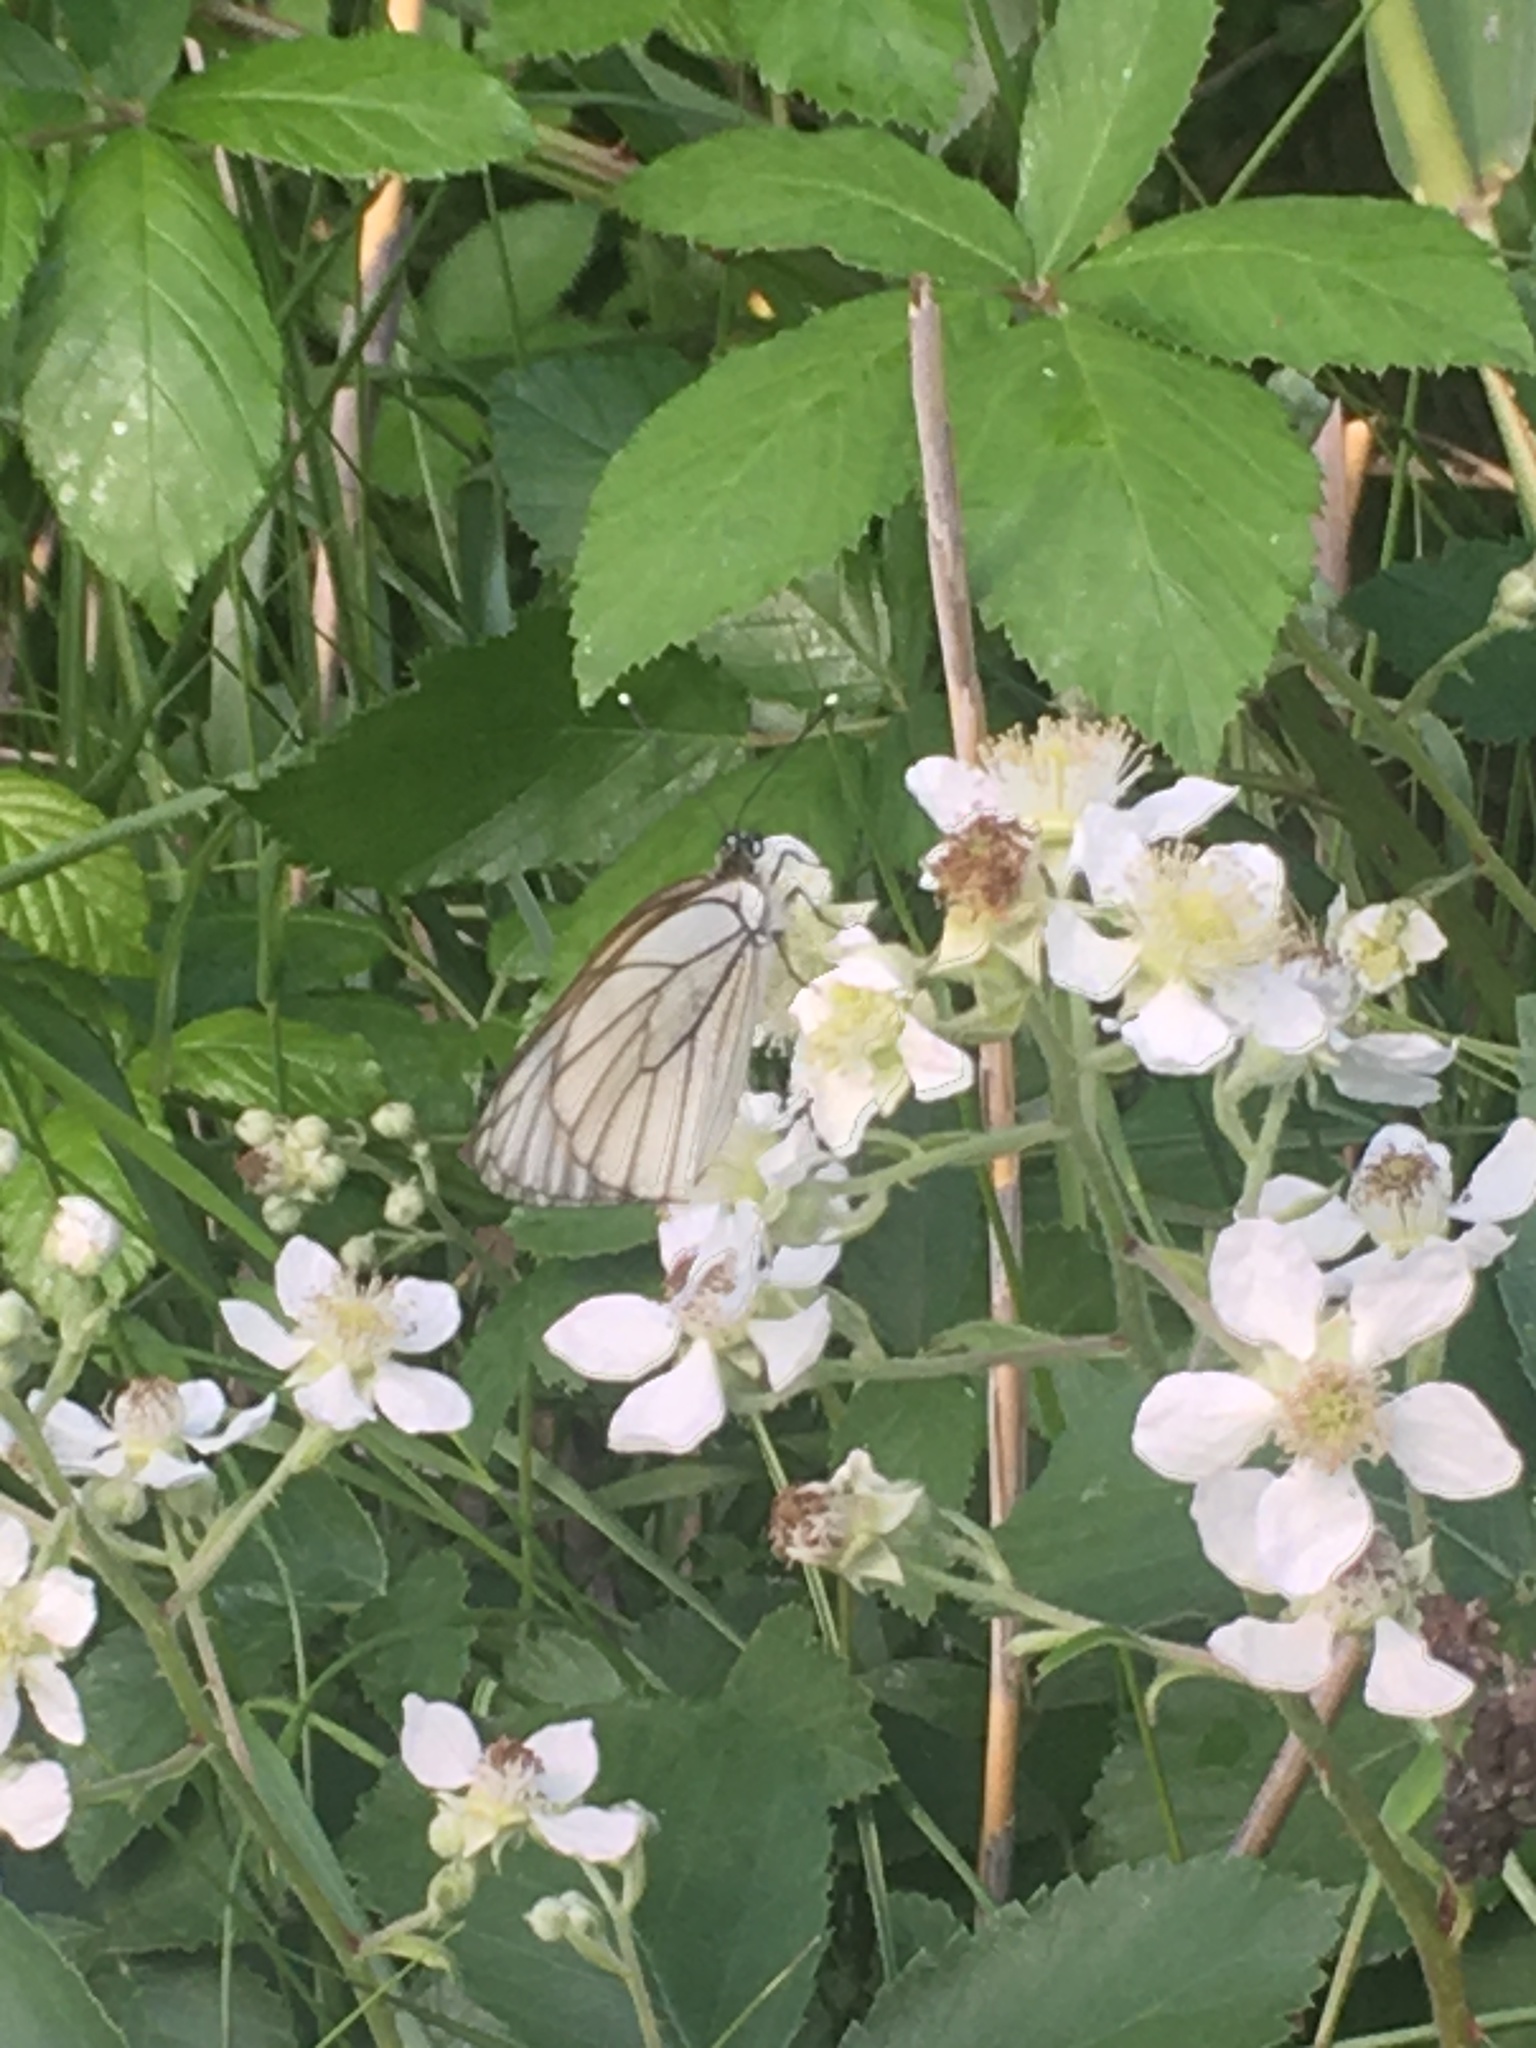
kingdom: Animalia
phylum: Arthropoda
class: Insecta
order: Lepidoptera
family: Pieridae
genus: Aporia
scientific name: Aporia crataegi
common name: Black-veined white
